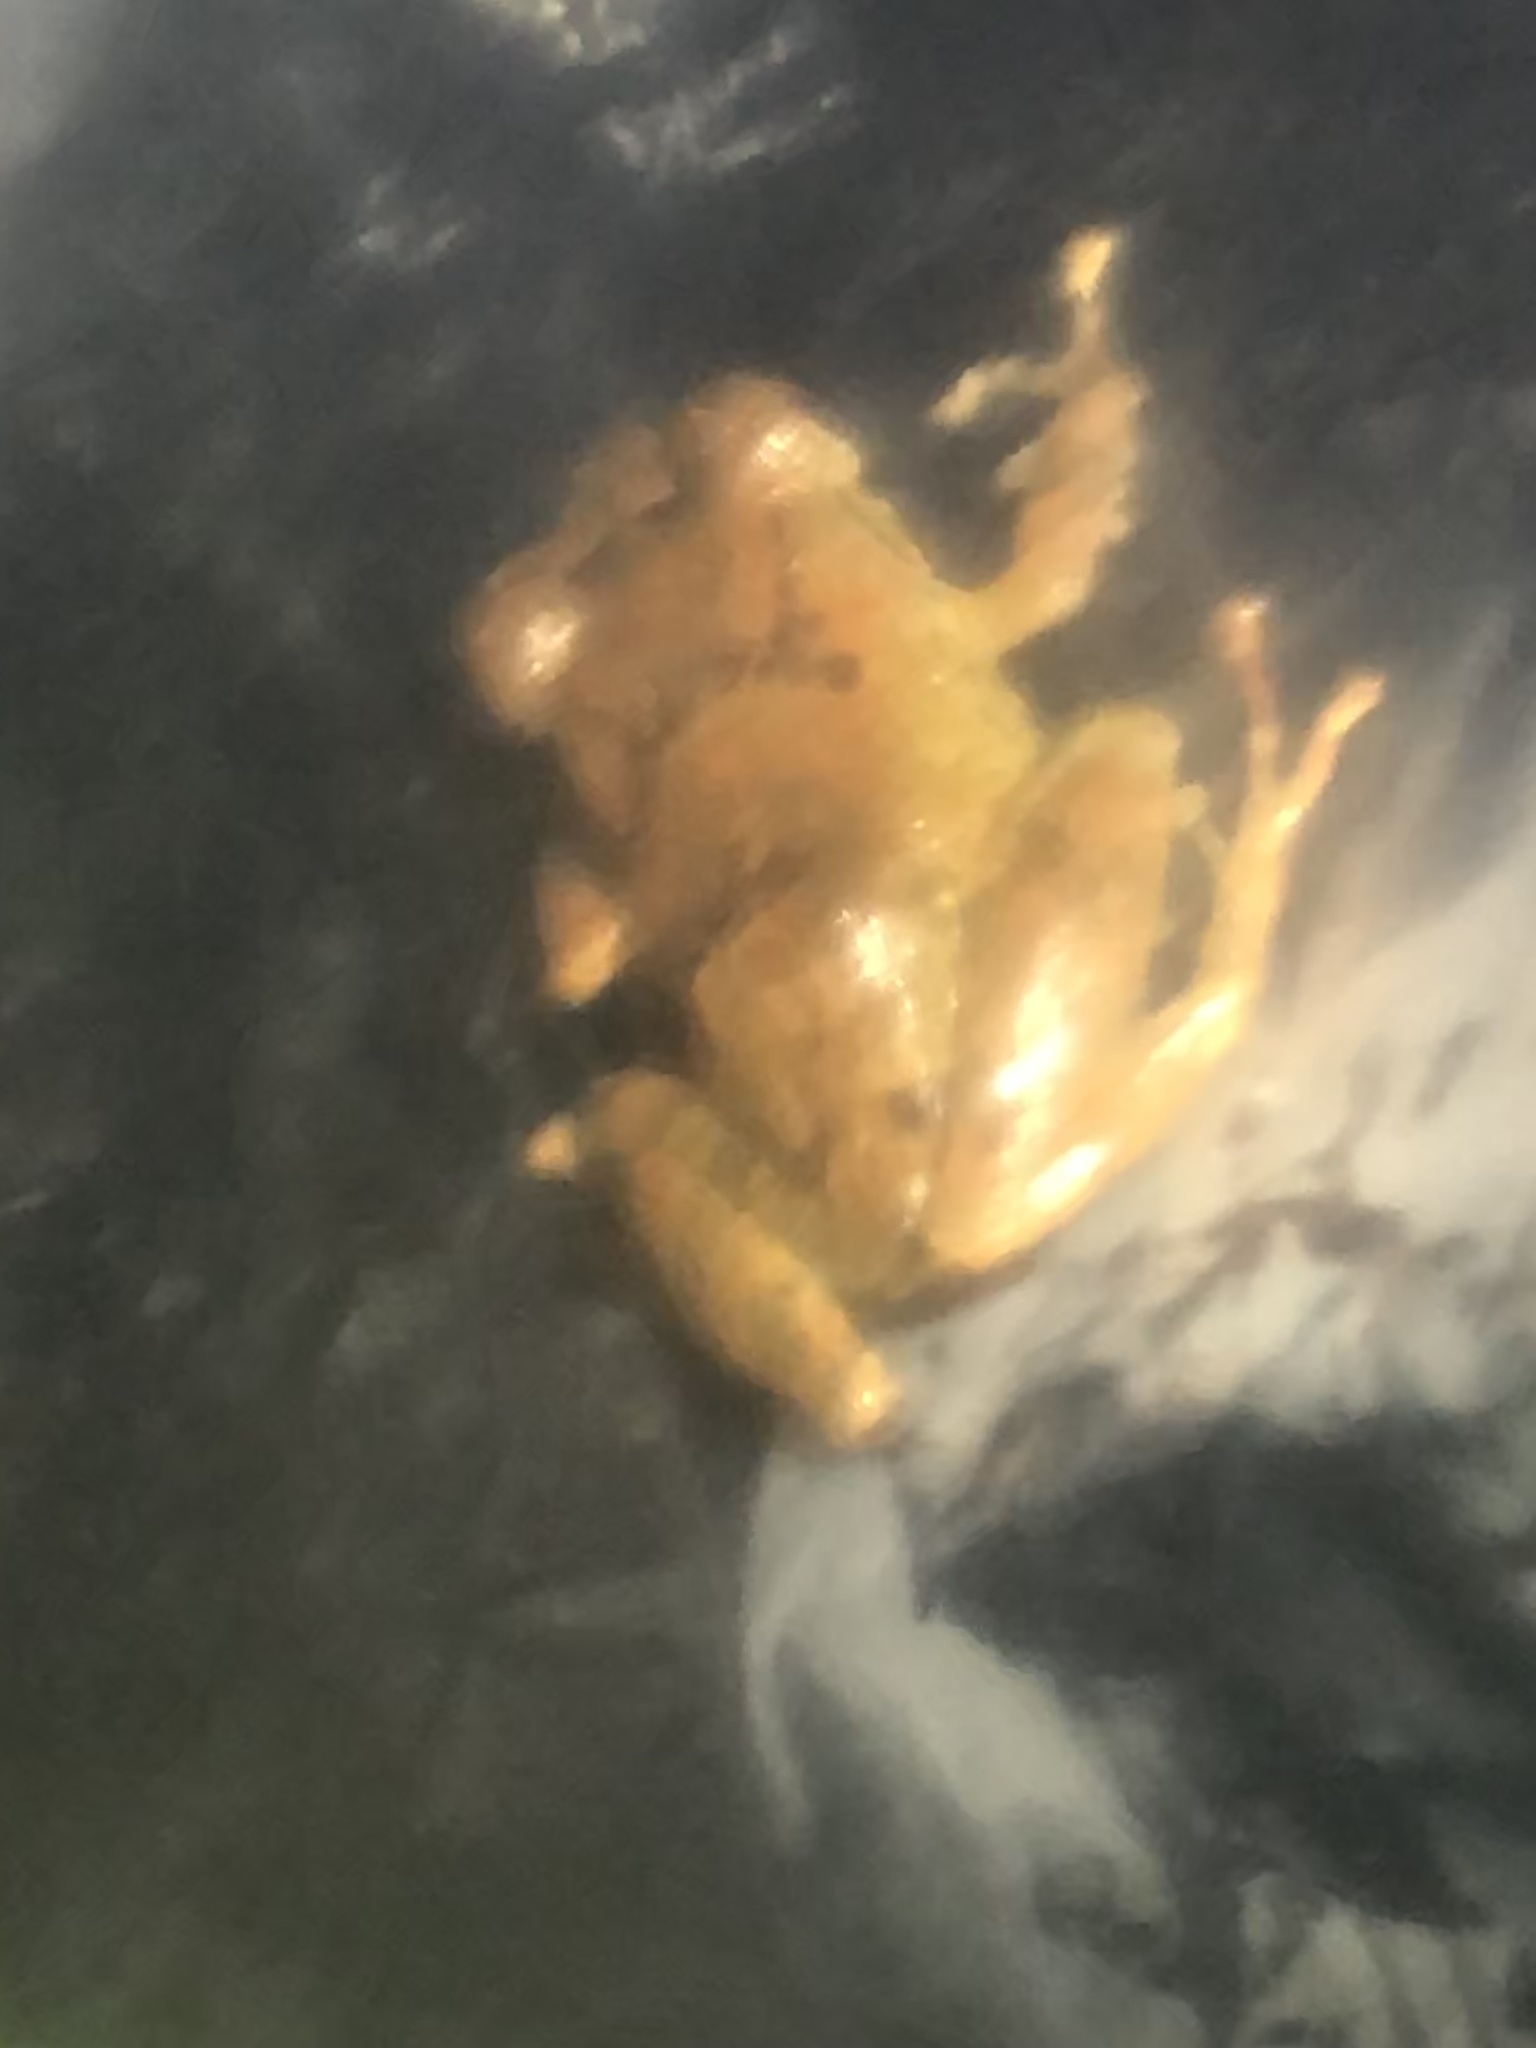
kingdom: Animalia
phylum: Chordata
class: Amphibia
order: Anura
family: Craugastoridae
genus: Pristimantis
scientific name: Pristimantis ockendeni
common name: Carabaya robber frog
